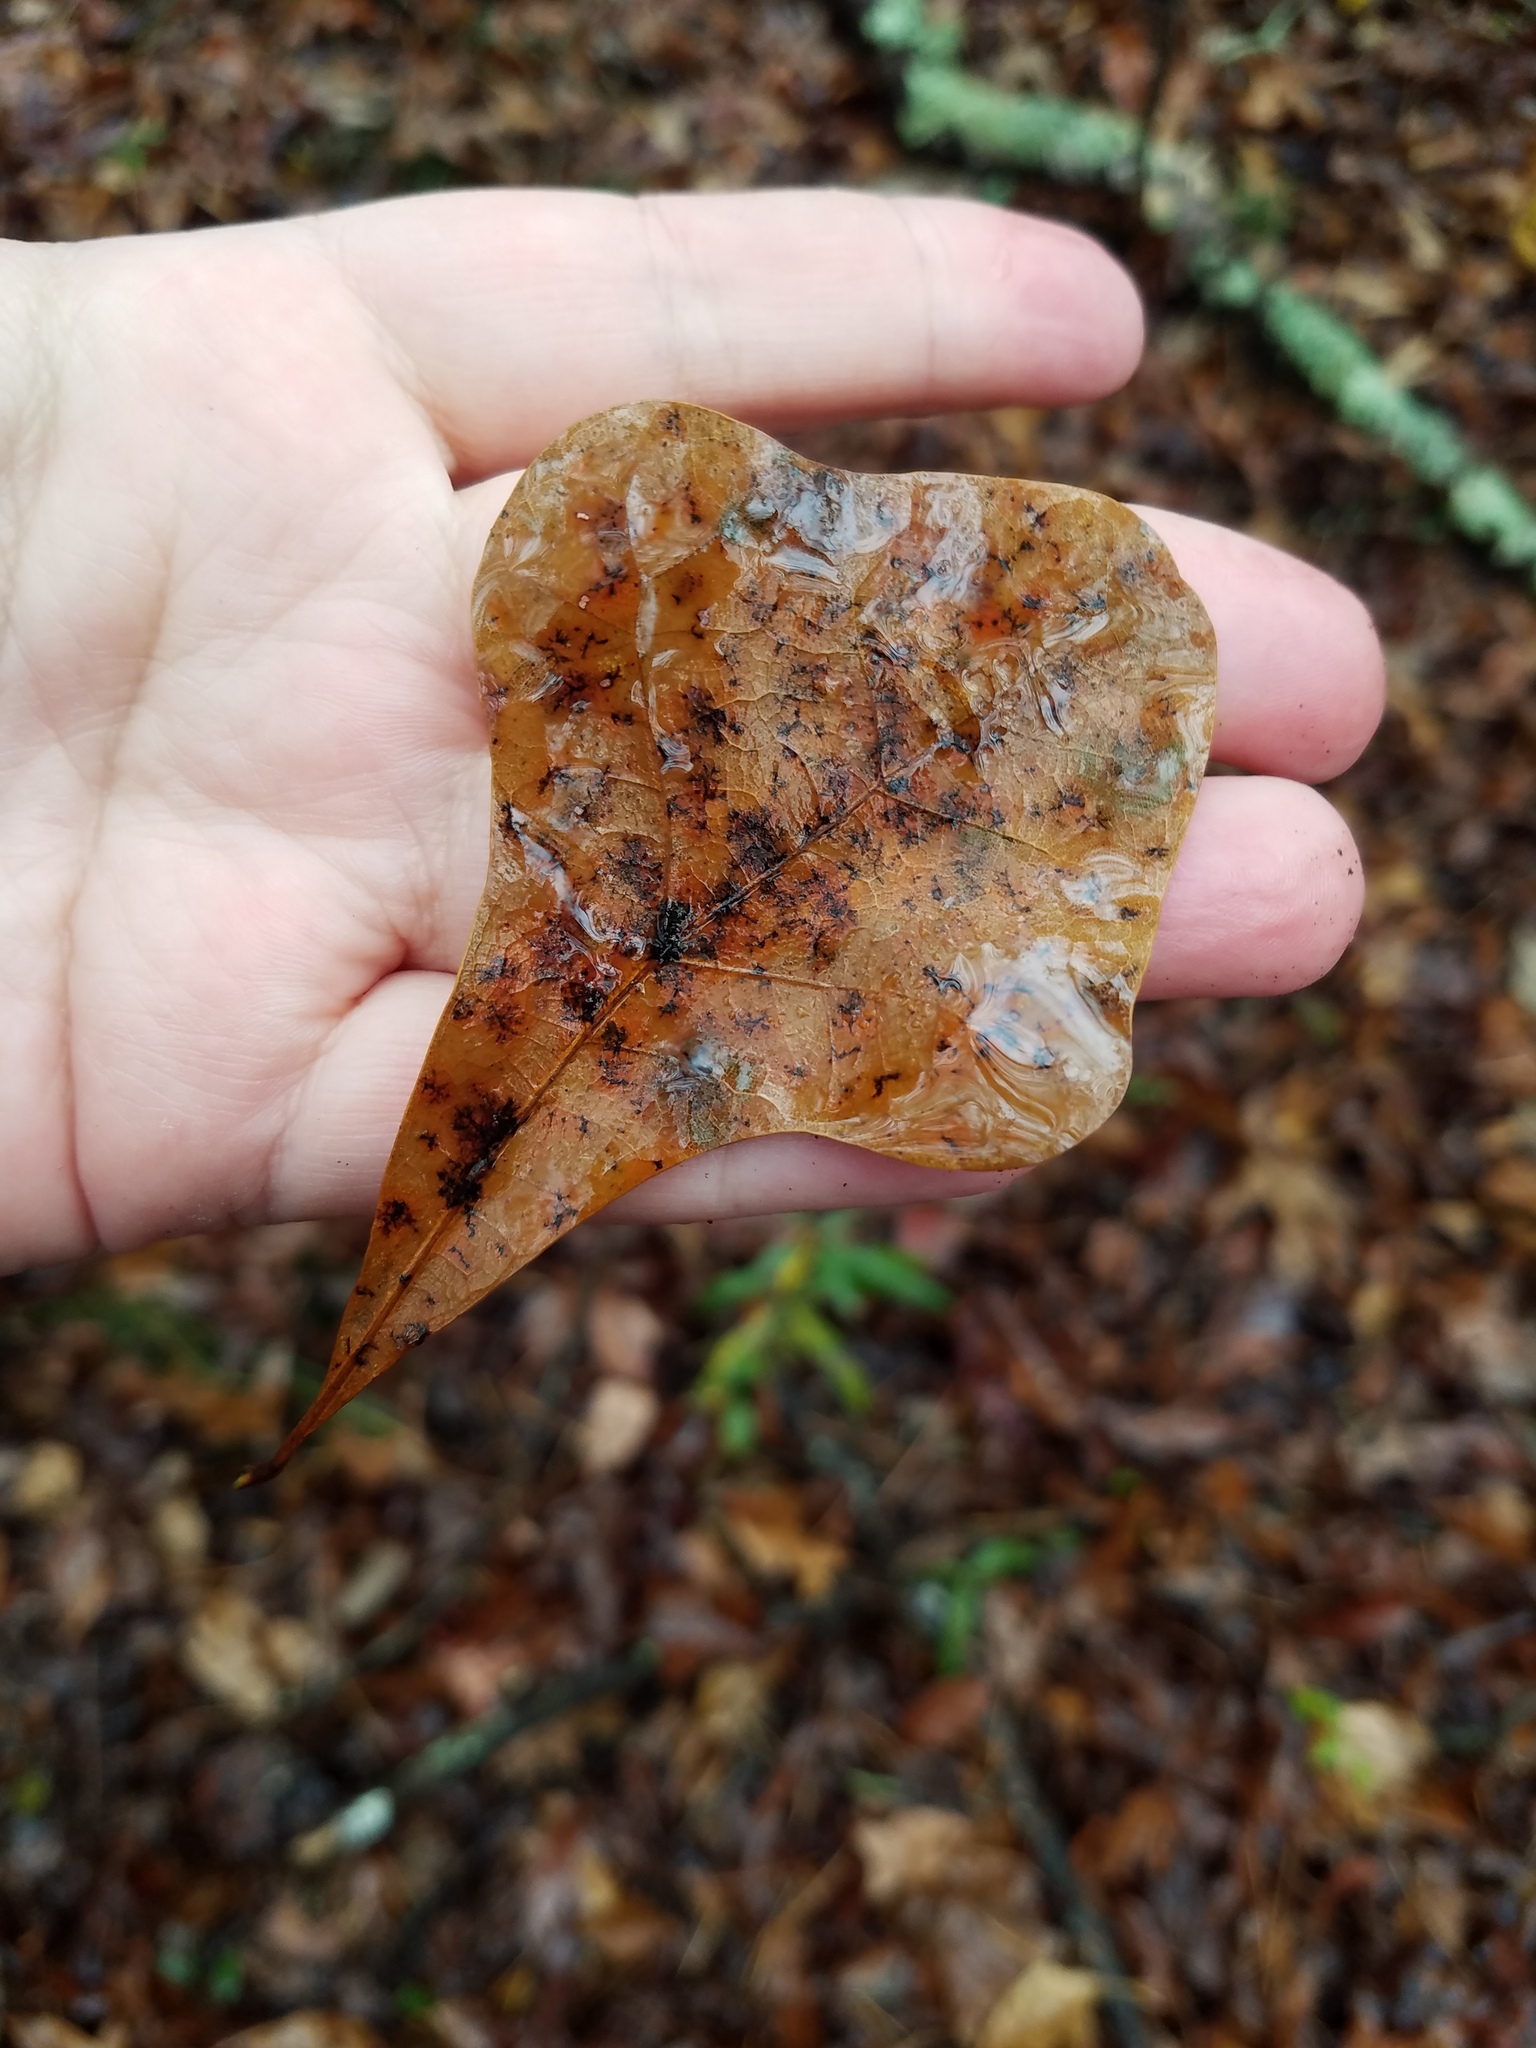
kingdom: Plantae
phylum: Tracheophyta
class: Magnoliopsida
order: Fagales
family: Fagaceae
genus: Quercus
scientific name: Quercus nigra
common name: Water oak
